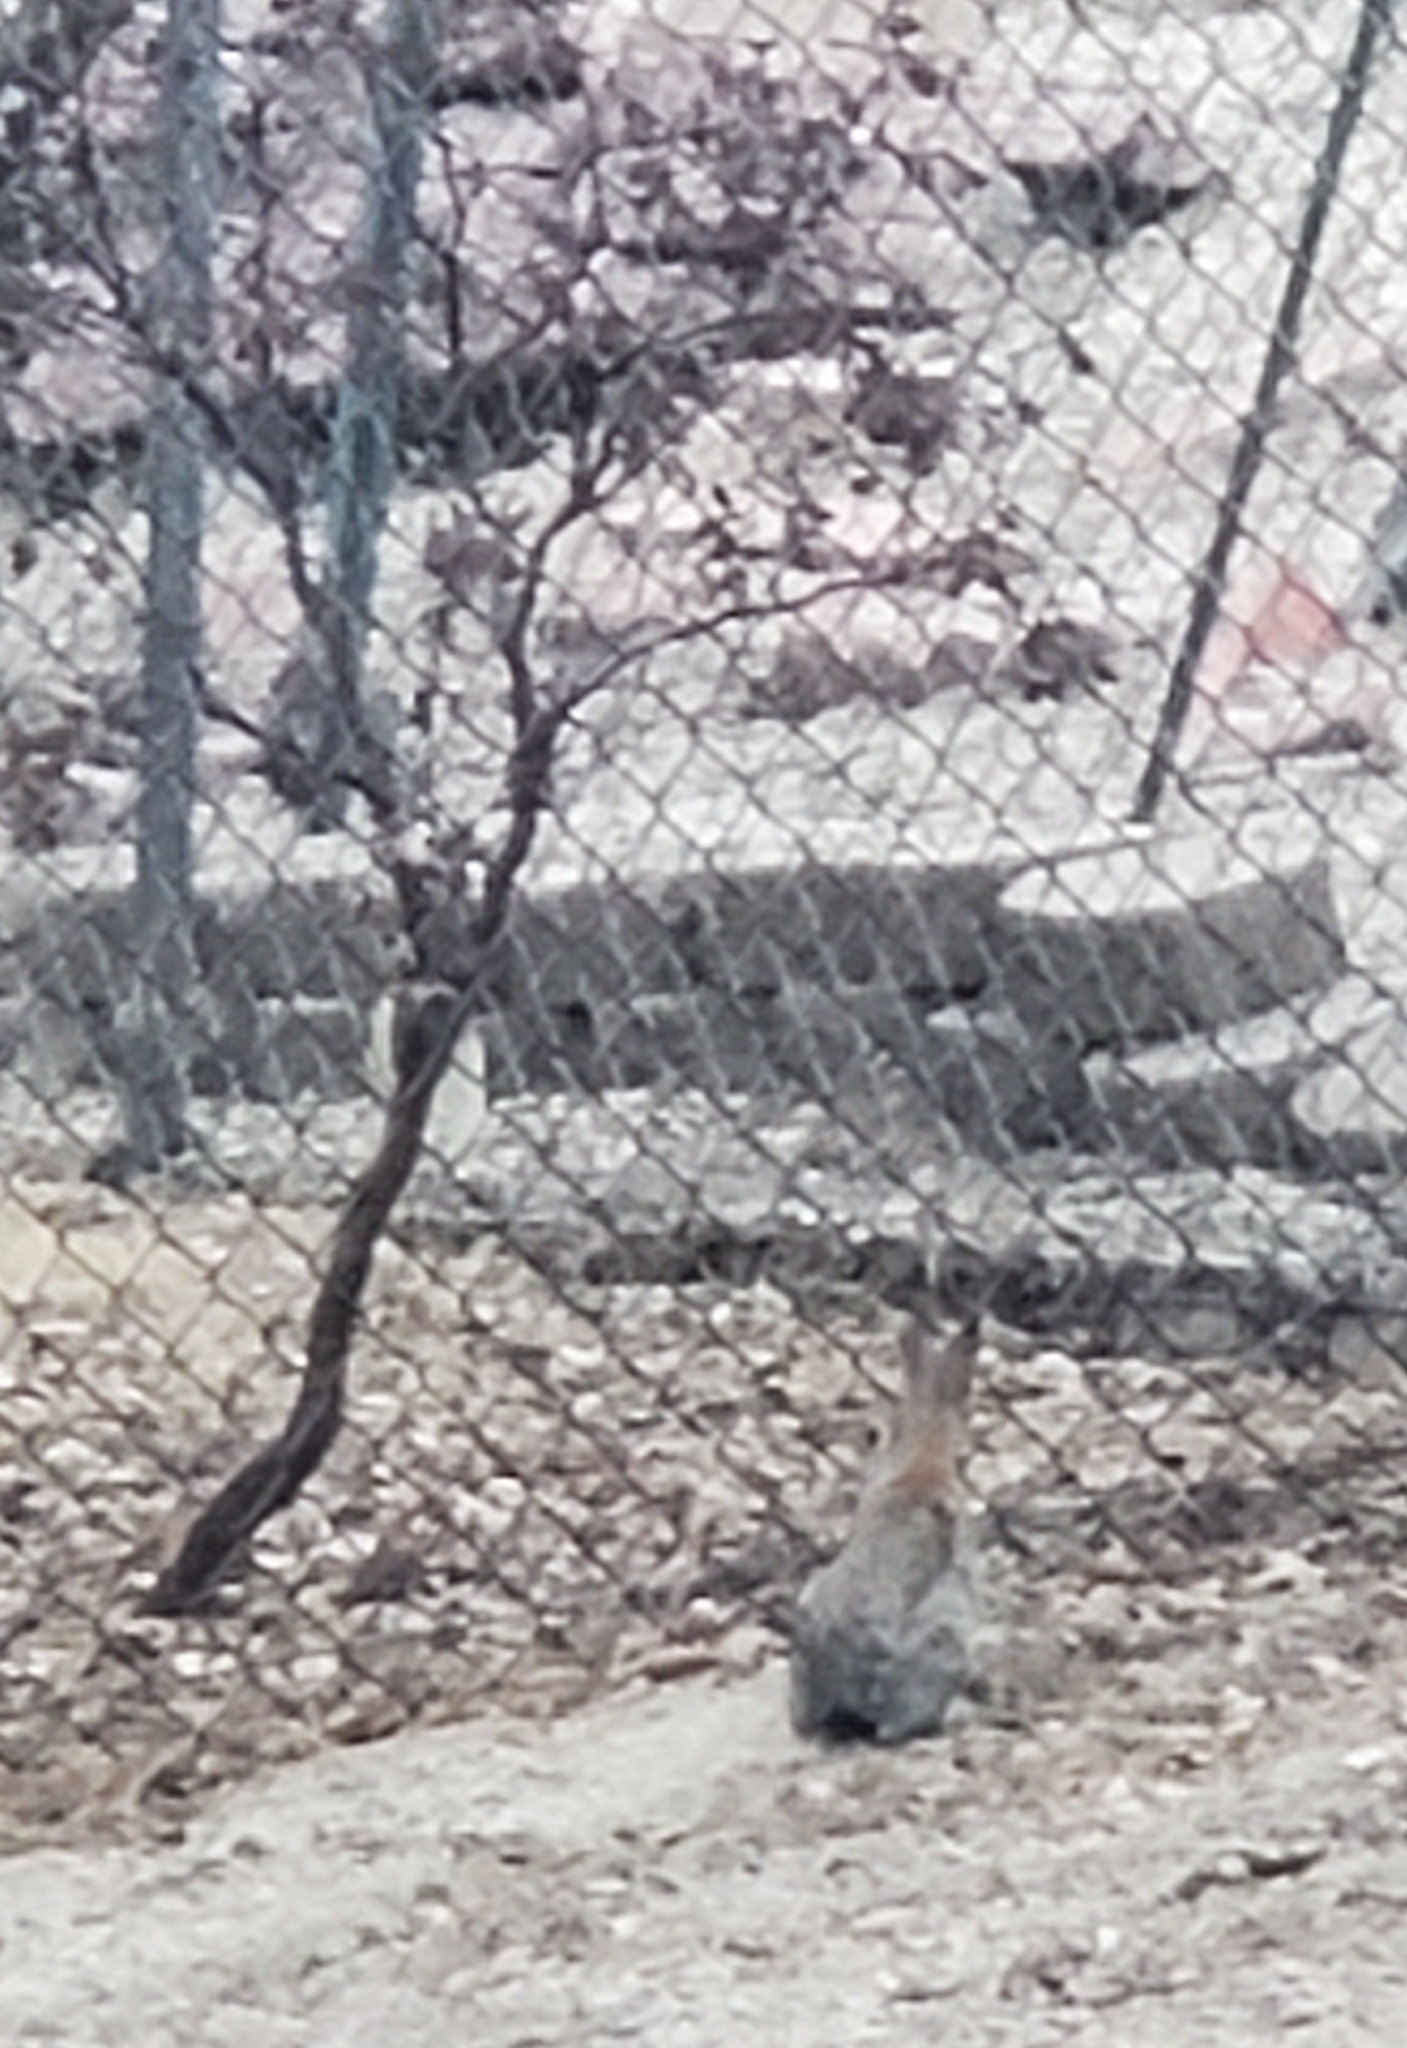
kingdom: Animalia
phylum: Chordata
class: Mammalia
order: Lagomorpha
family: Leporidae
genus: Sylvilagus
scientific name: Sylvilagus audubonii
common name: Desert cottontail
